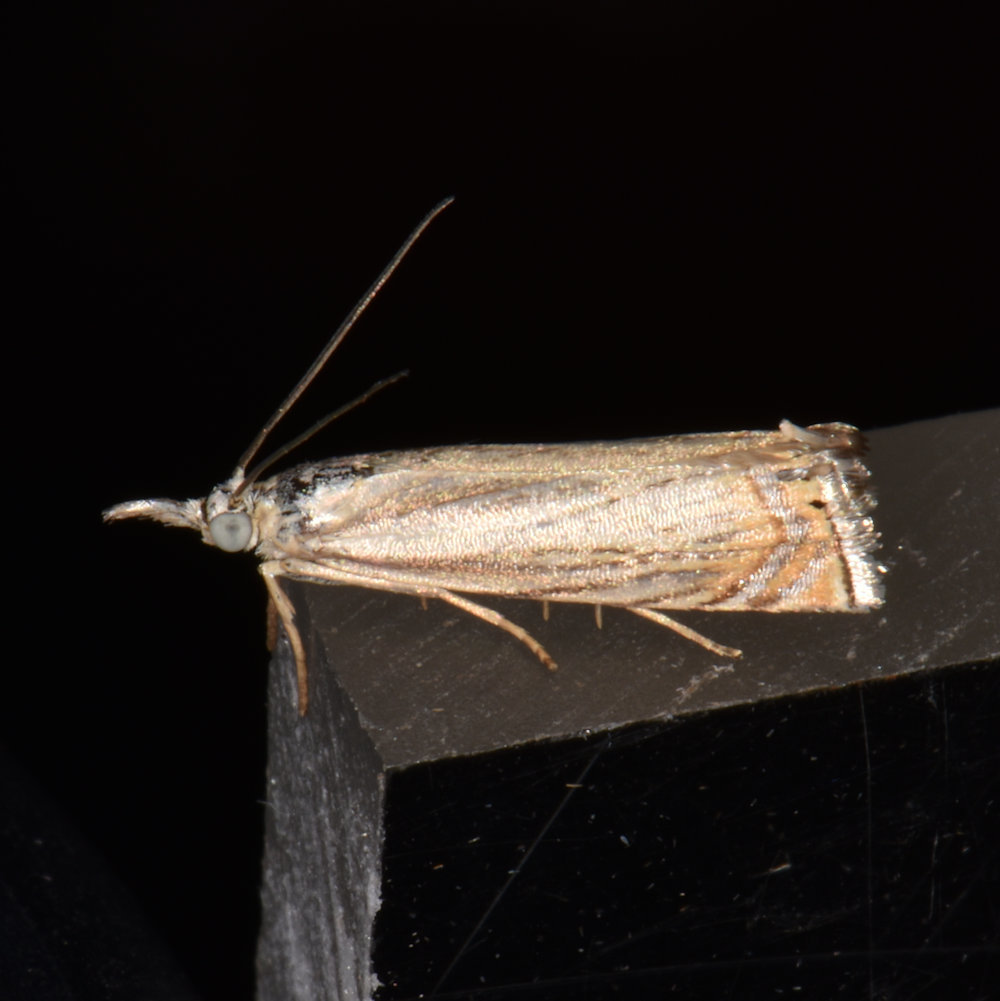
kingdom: Animalia
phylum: Arthropoda
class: Insecta
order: Lepidoptera
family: Crambidae
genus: Chrysoteuchia
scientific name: Chrysoteuchia topiarius
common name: Topiary grass-veneer
